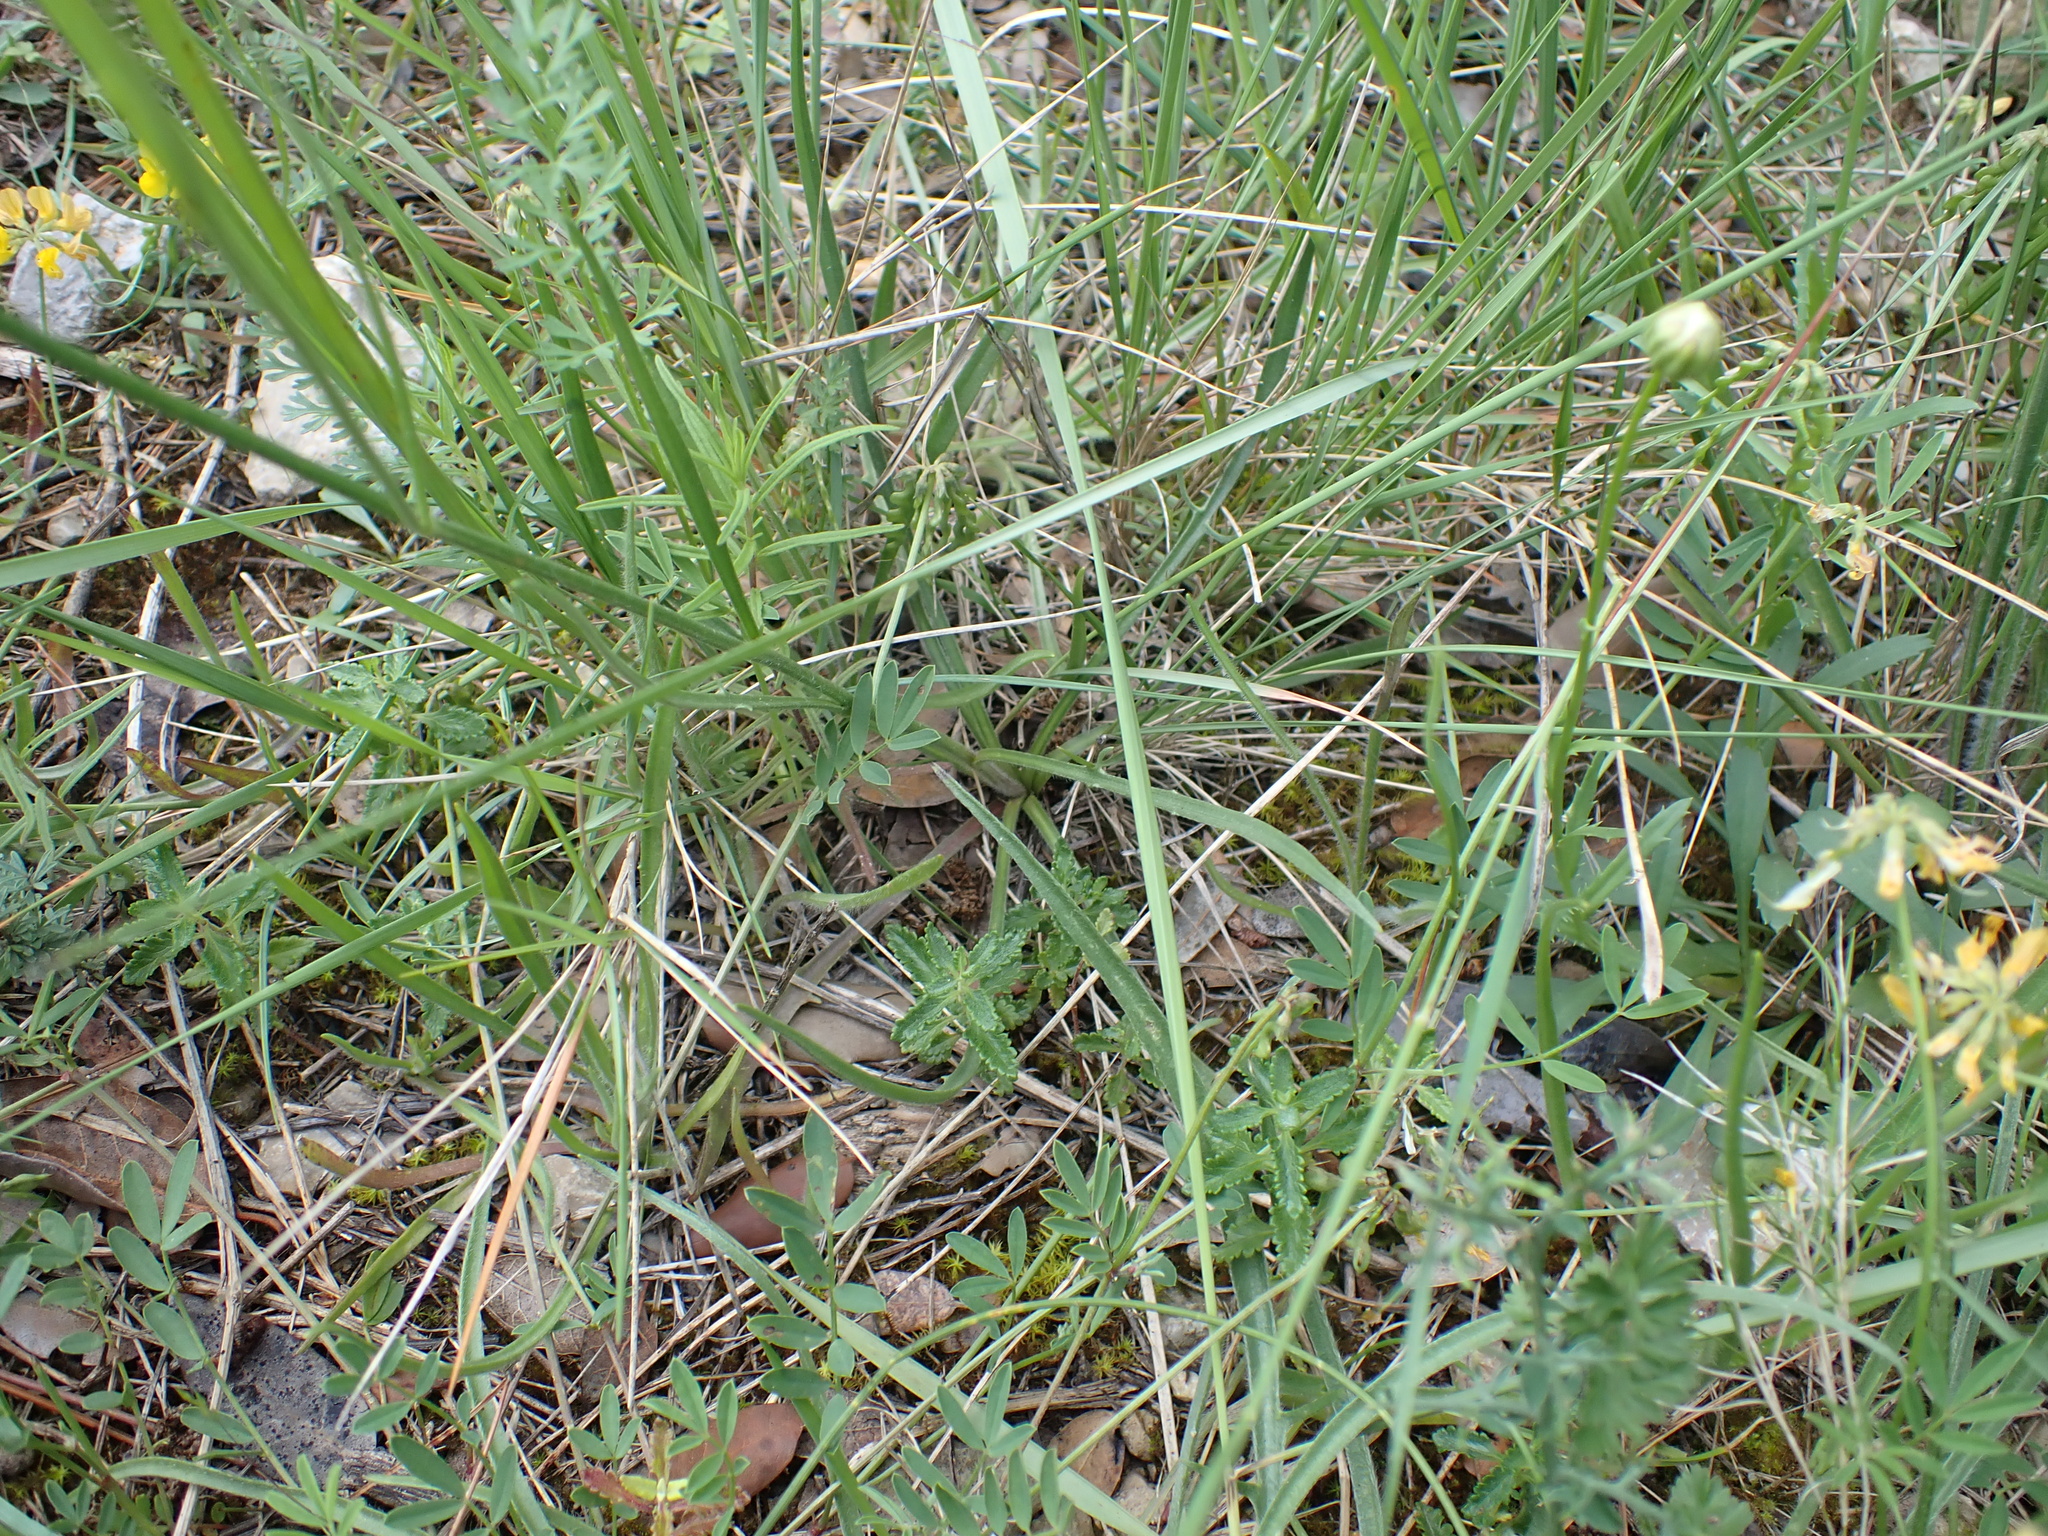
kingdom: Plantae
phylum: Tracheophyta
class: Magnoliopsida
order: Asterales
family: Asteraceae
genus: Catananche
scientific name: Catananche caerulea
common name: Blue cupidone
